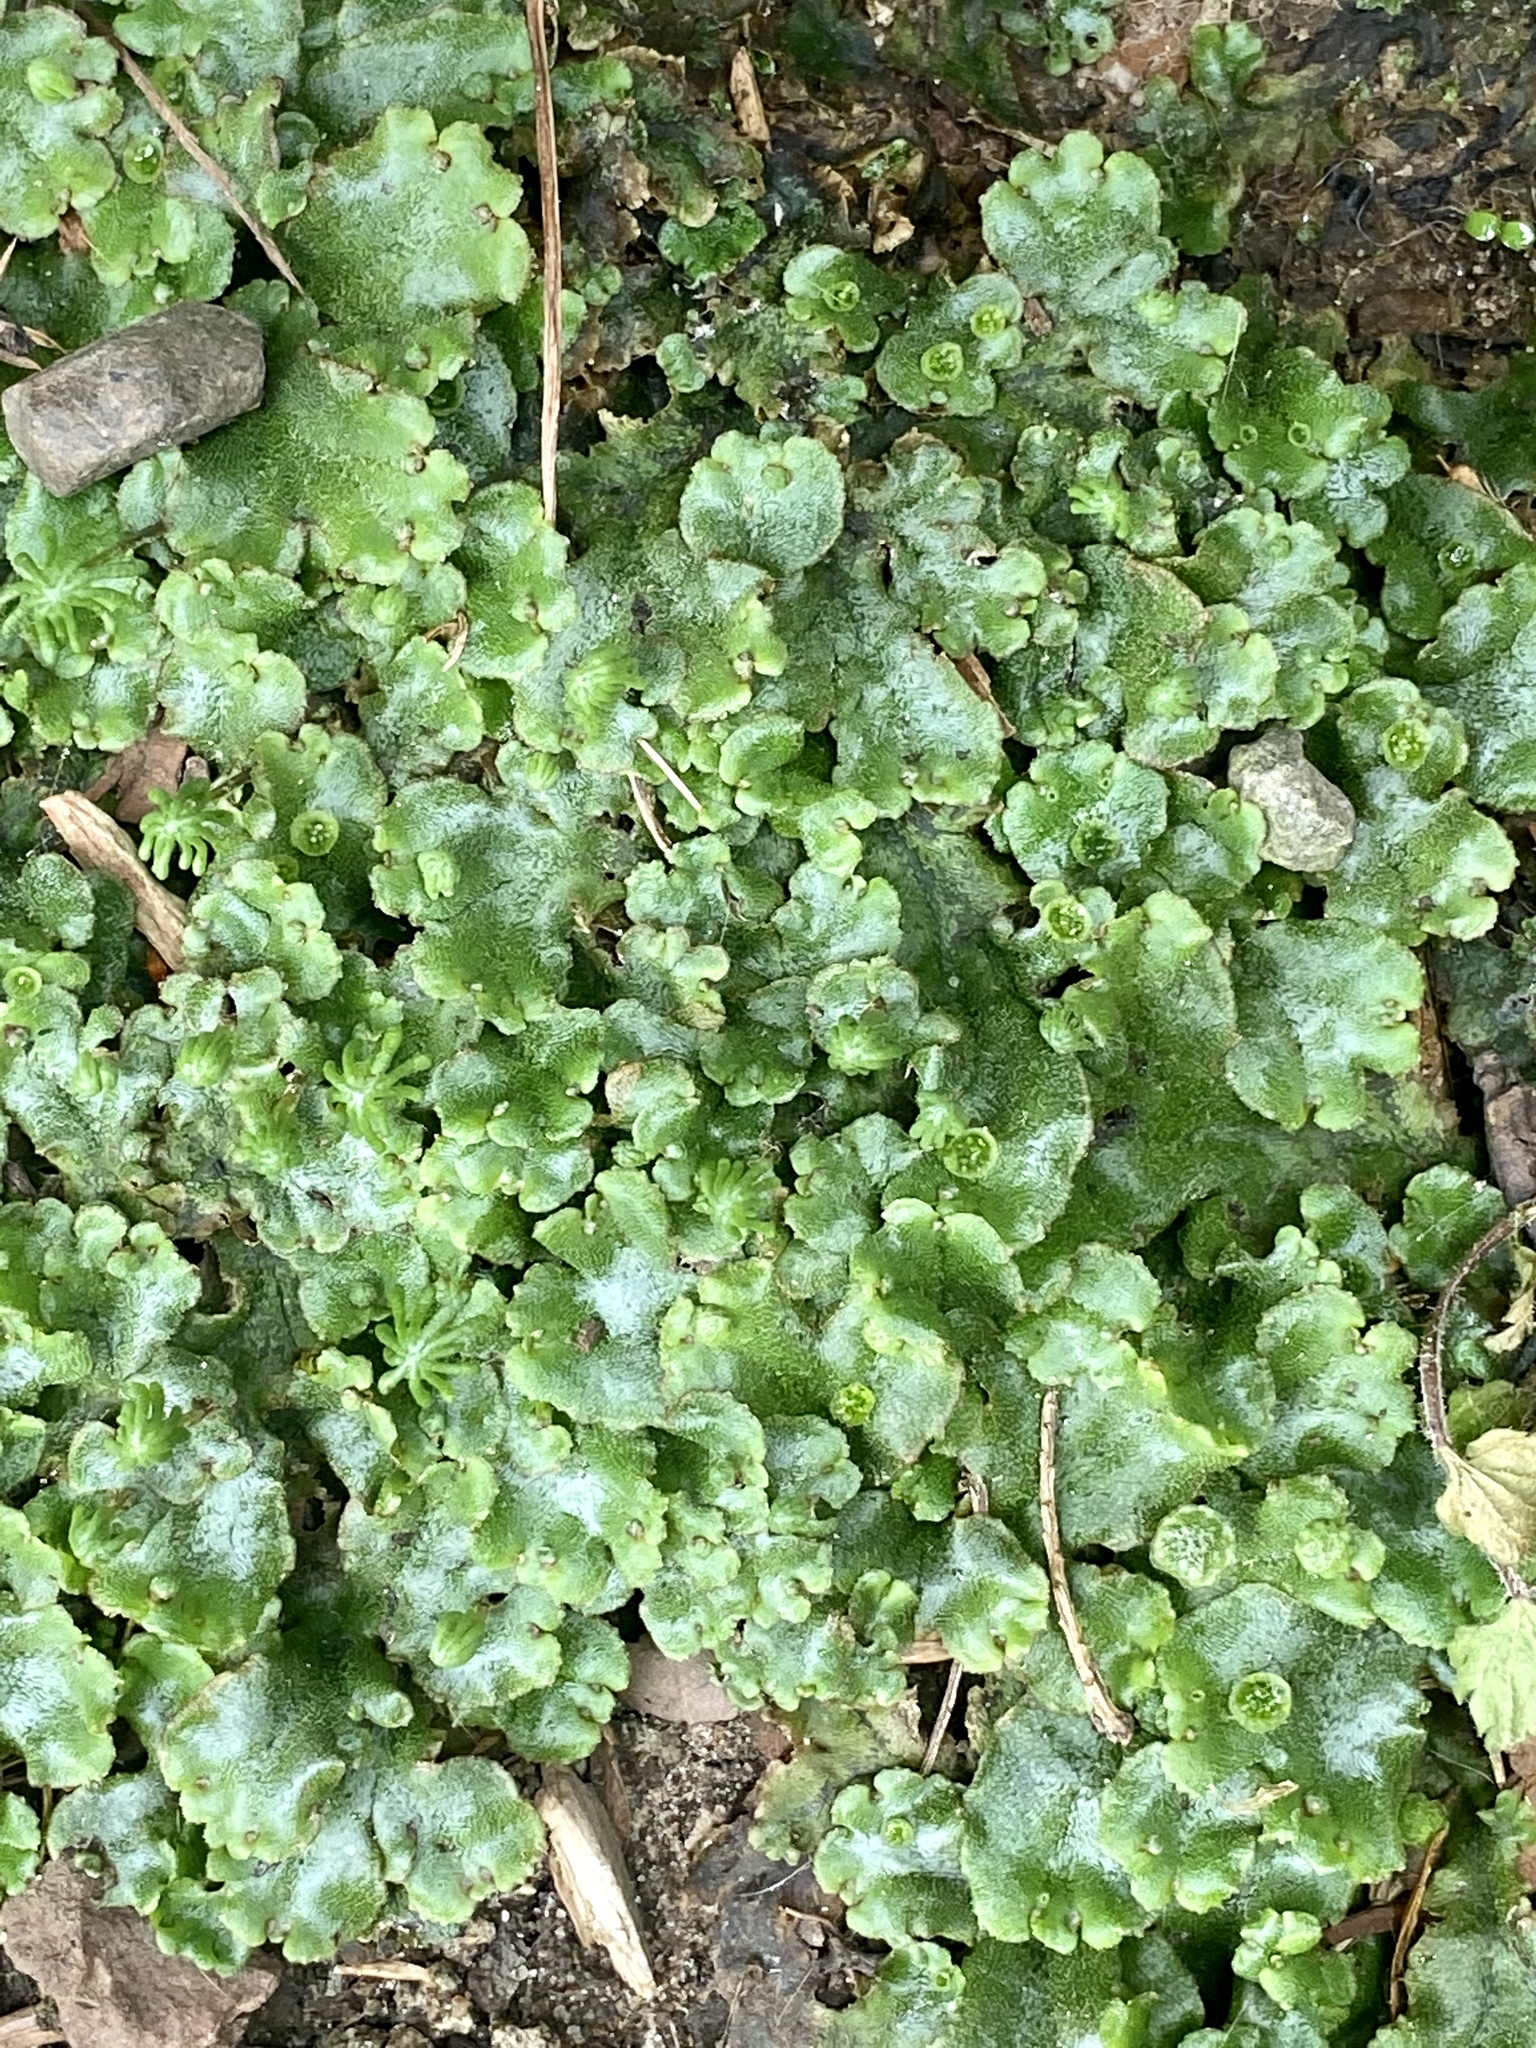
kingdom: Plantae
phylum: Marchantiophyta
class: Marchantiopsida
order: Marchantiales
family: Marchantiaceae
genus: Marchantia
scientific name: Marchantia polymorpha
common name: Common liverwort
